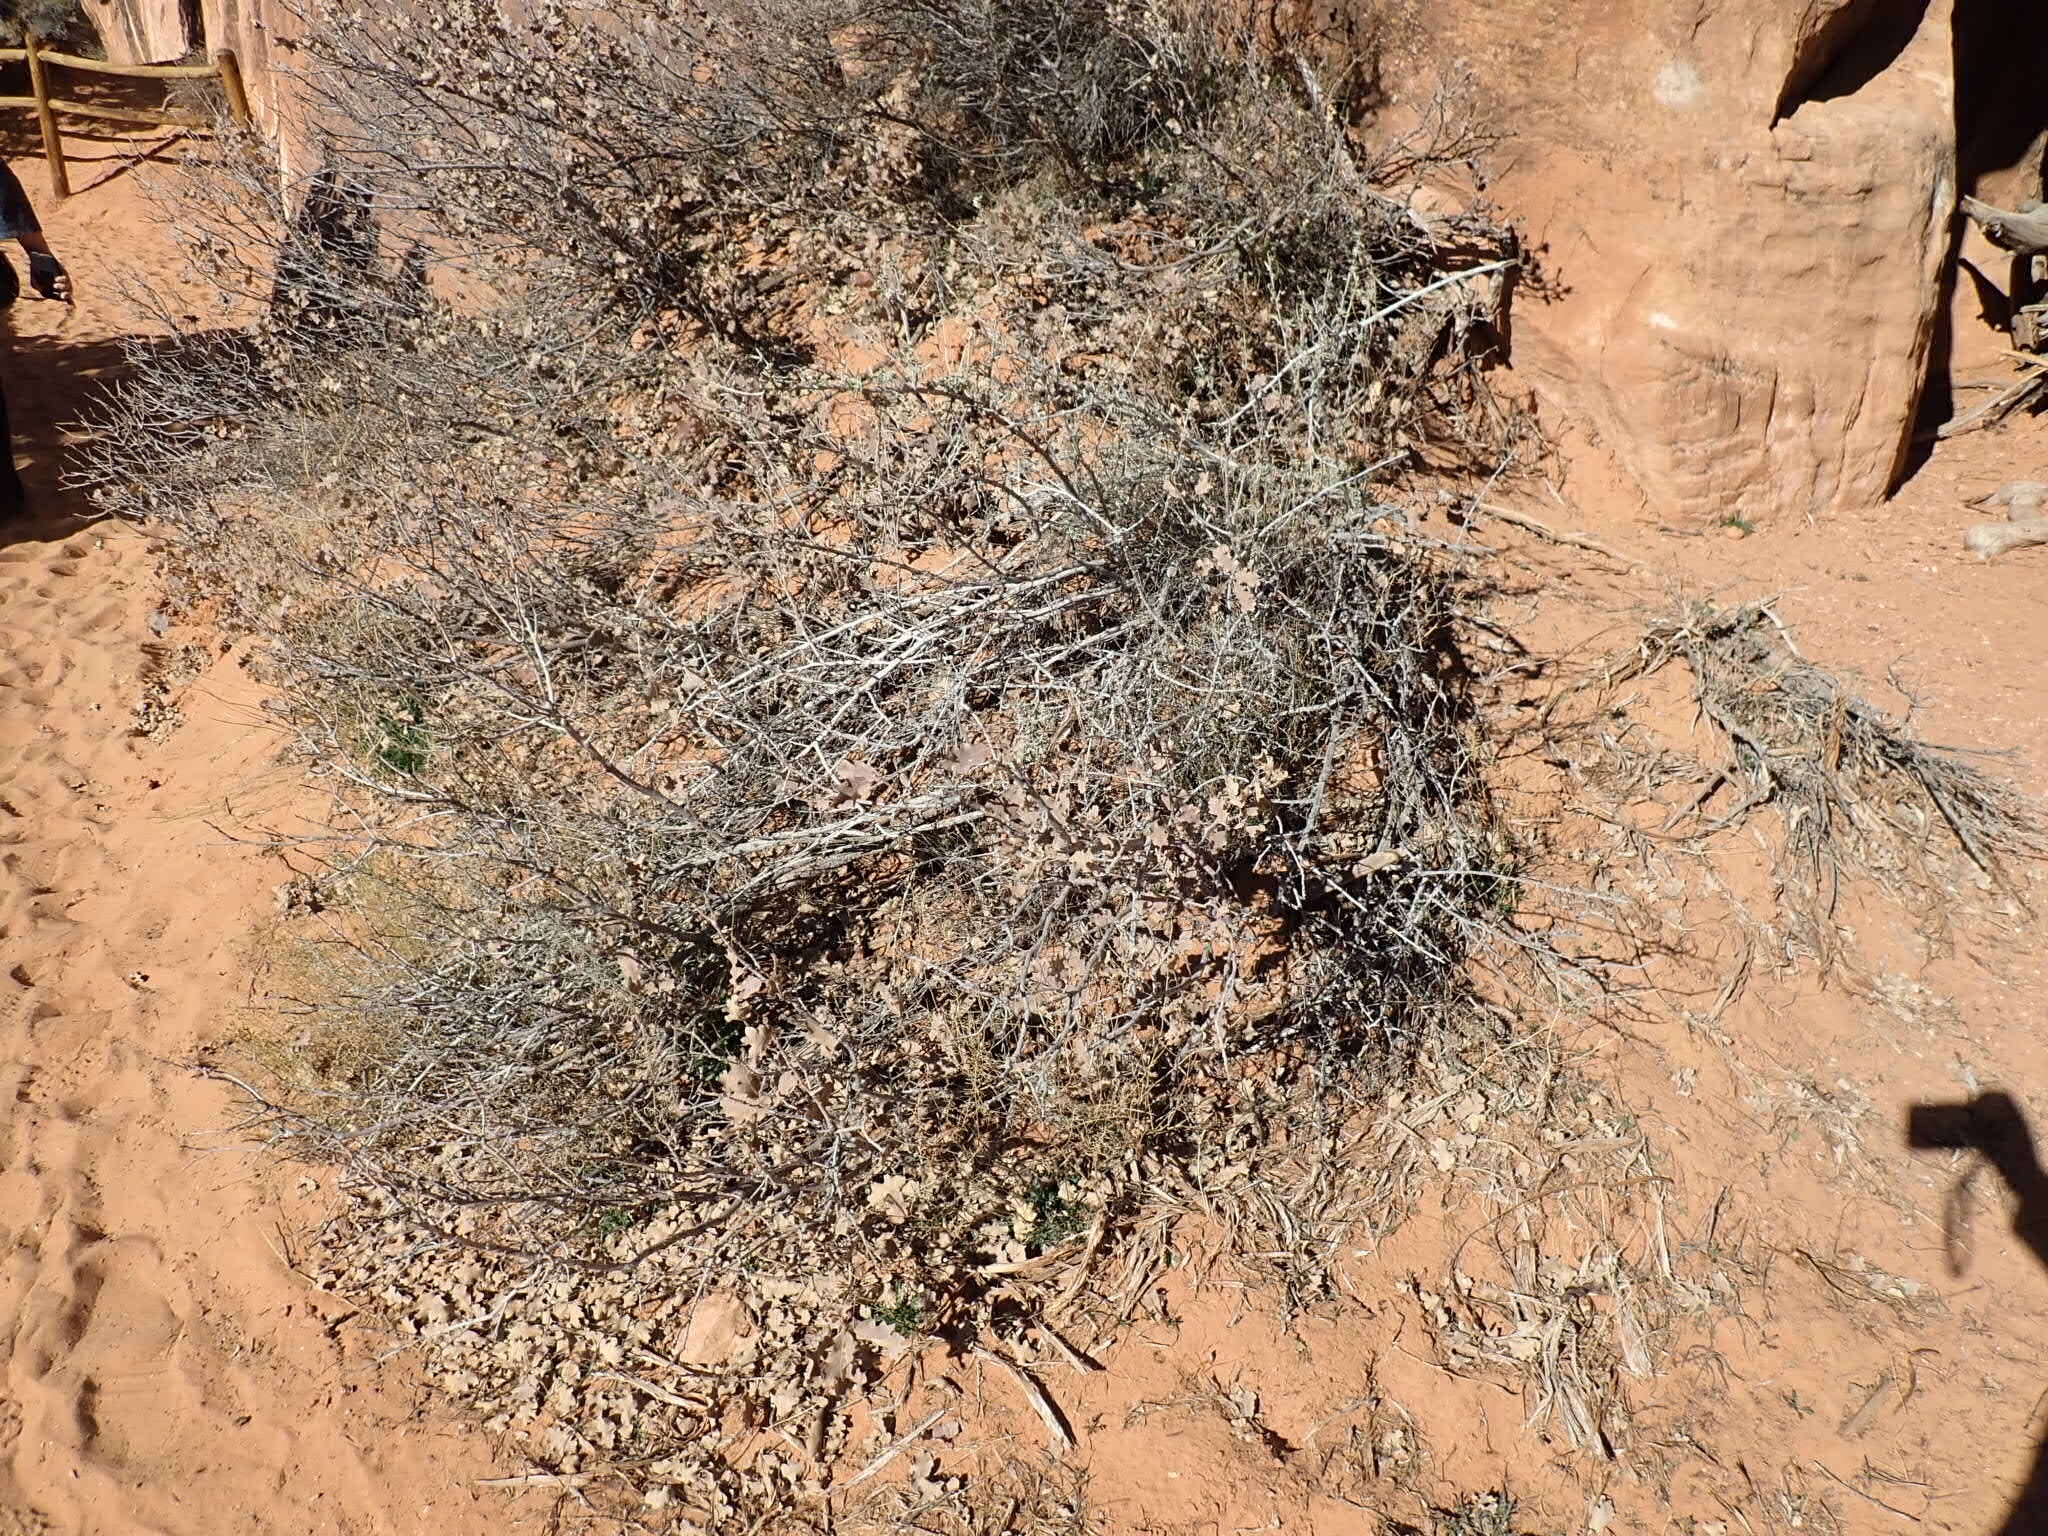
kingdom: Plantae
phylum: Tracheophyta
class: Magnoliopsida
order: Fagales
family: Fagaceae
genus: Quercus
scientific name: Quercus welshii
